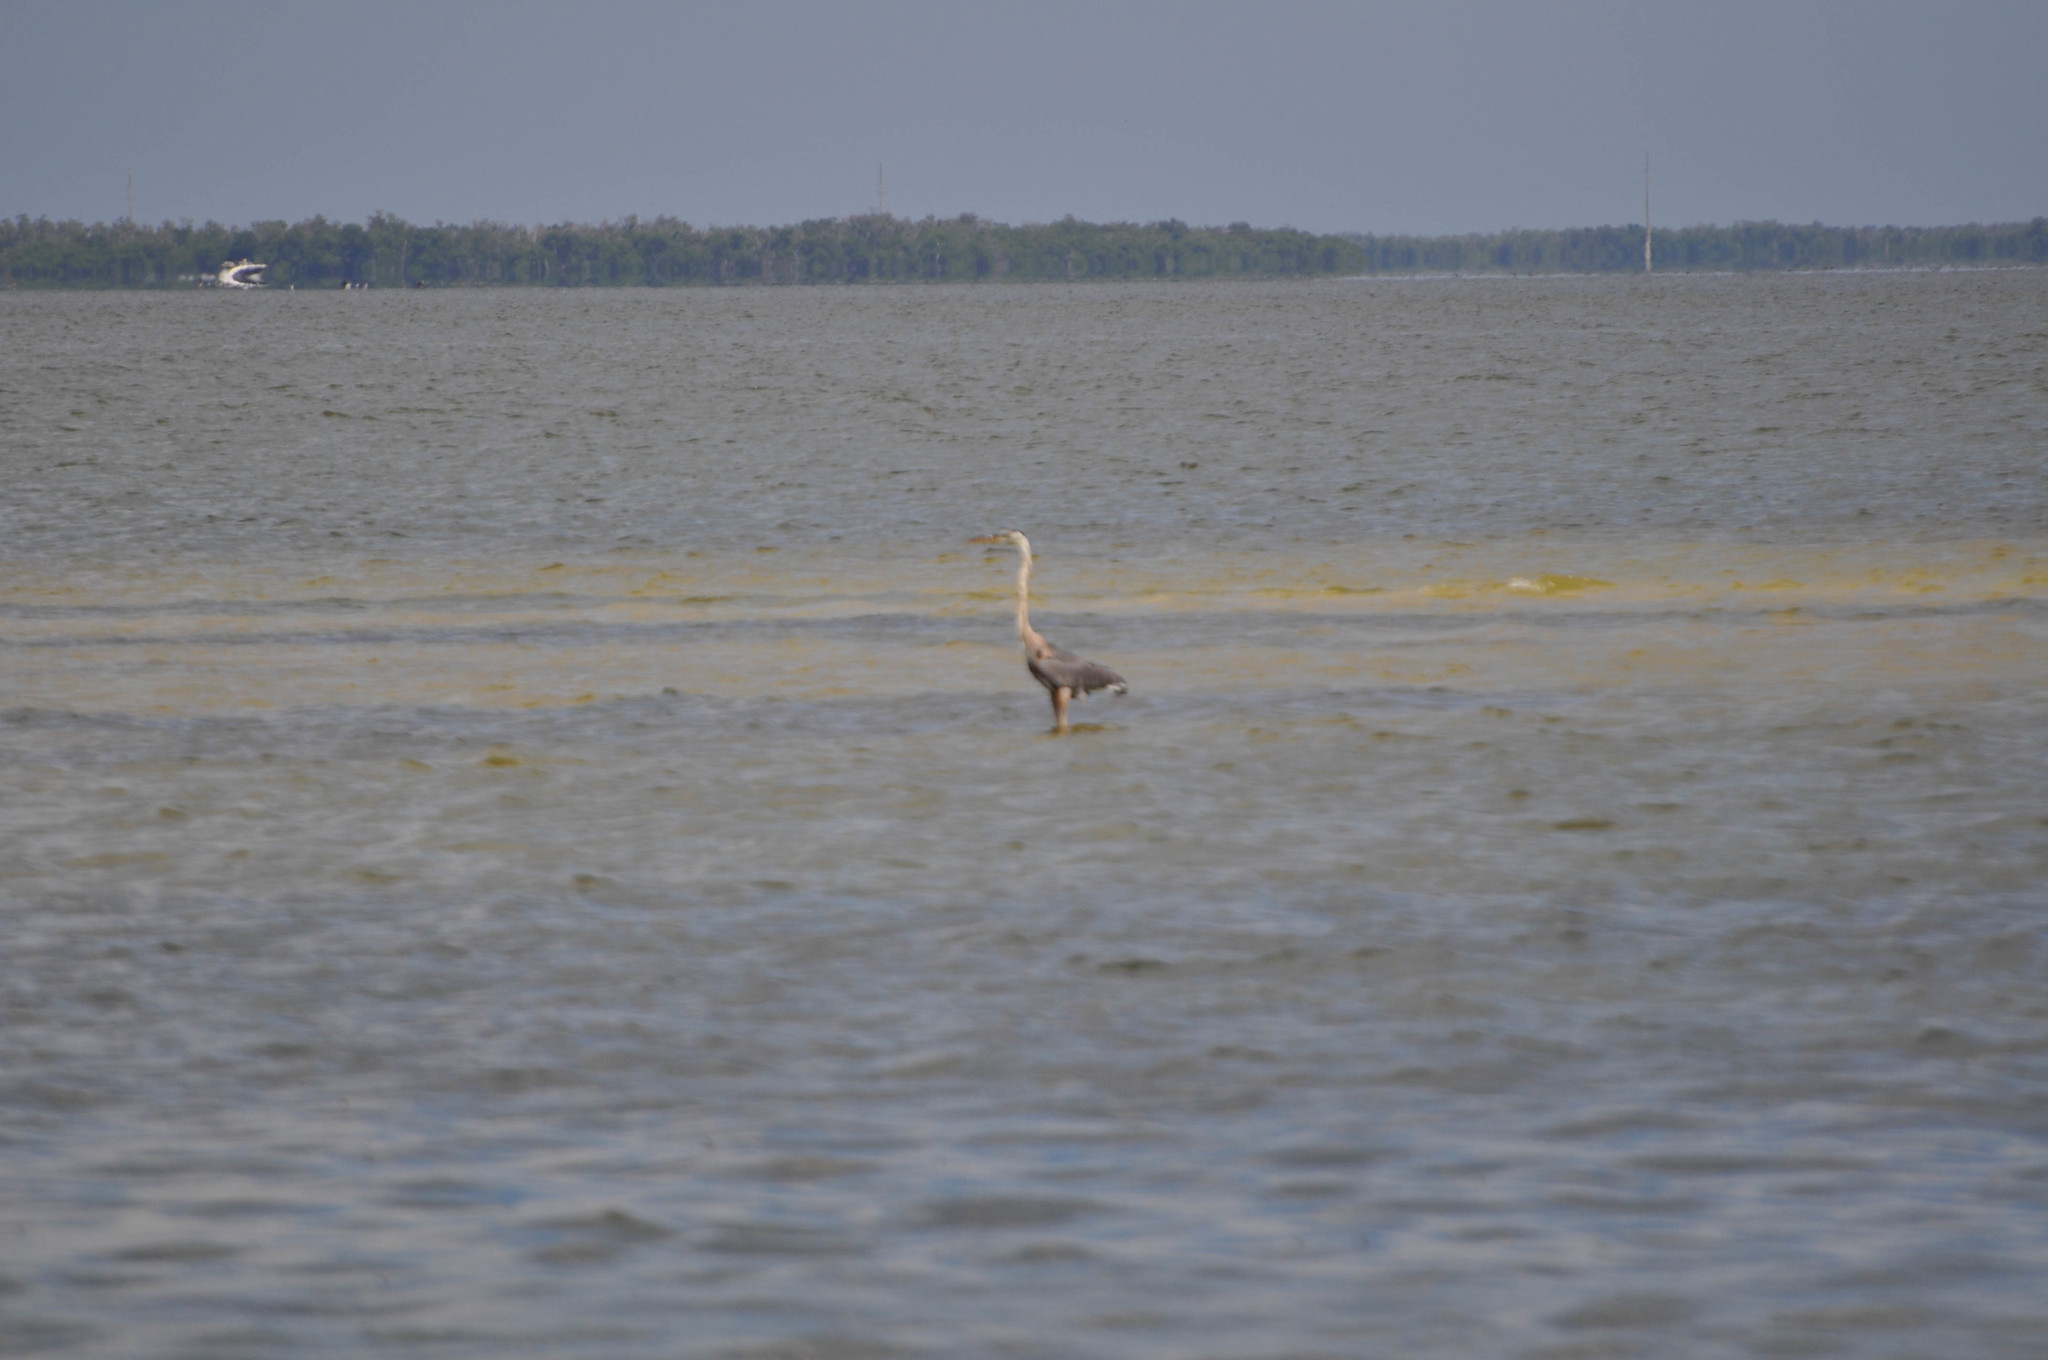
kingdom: Animalia
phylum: Chordata
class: Aves
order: Pelecaniformes
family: Ardeidae
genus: Ardea
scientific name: Ardea herodias
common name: Great blue heron
